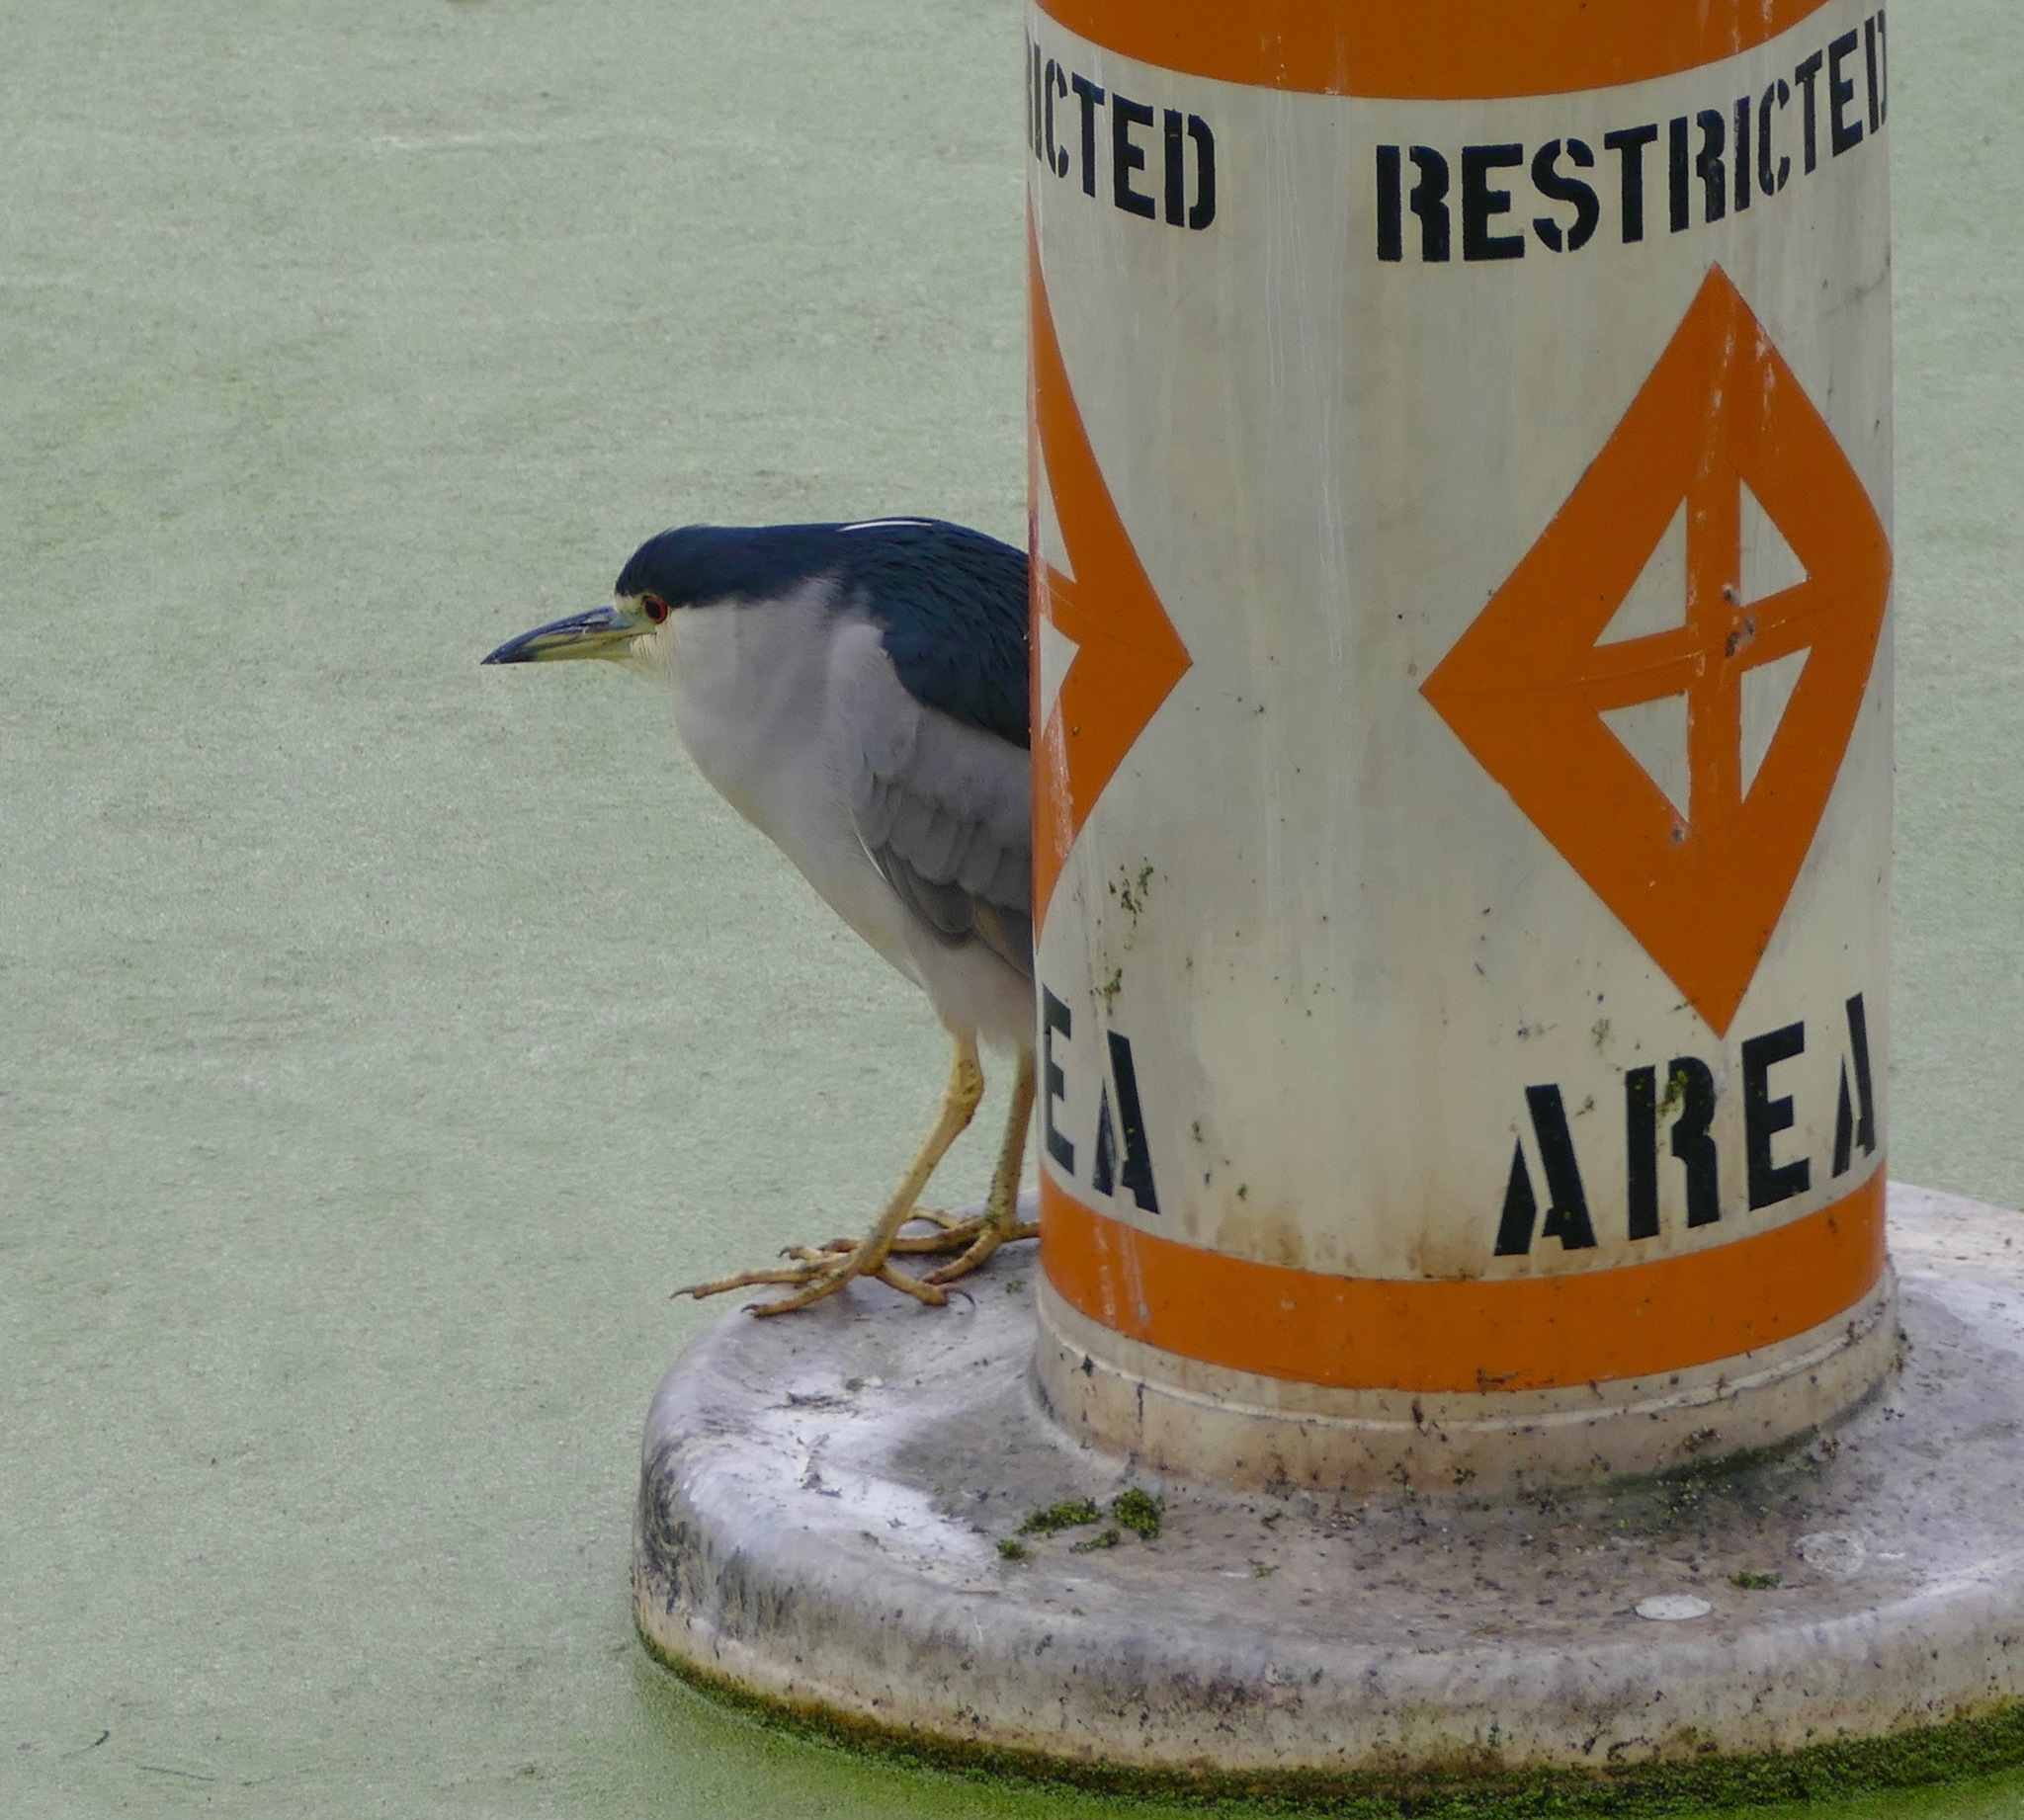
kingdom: Animalia
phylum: Chordata
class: Aves
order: Pelecaniformes
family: Ardeidae
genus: Nycticorax
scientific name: Nycticorax nycticorax
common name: Black-crowned night heron
